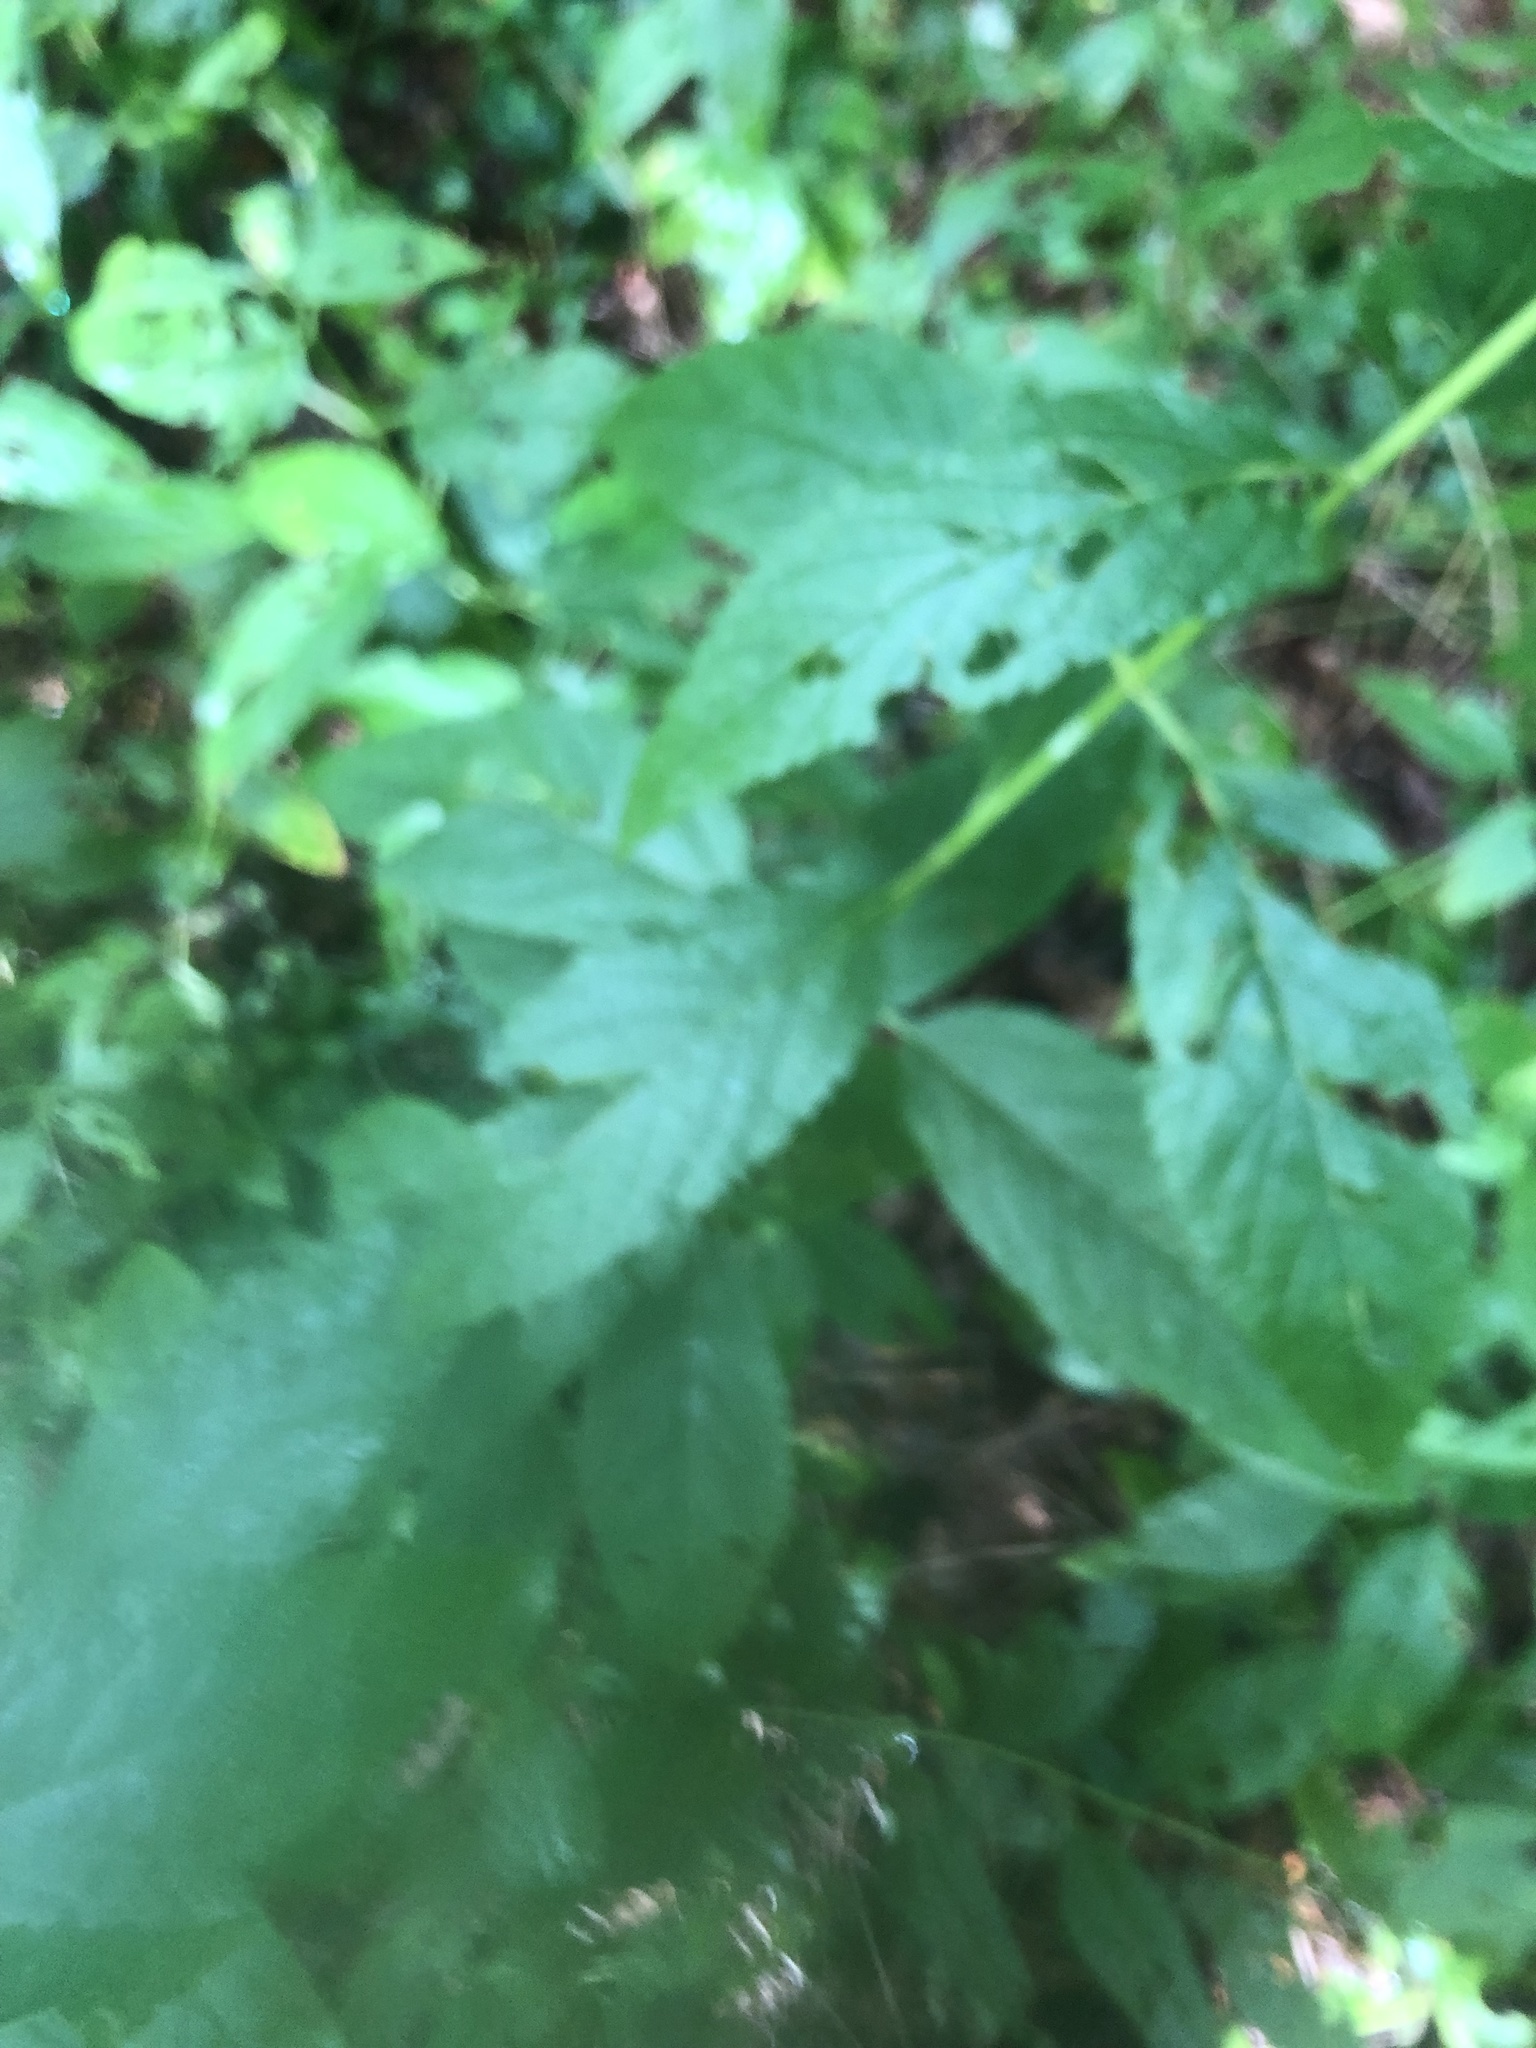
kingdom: Plantae
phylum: Tracheophyta
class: Magnoliopsida
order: Lamiales
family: Lamiaceae
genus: Teucrium
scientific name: Teucrium canadense
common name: American germander
